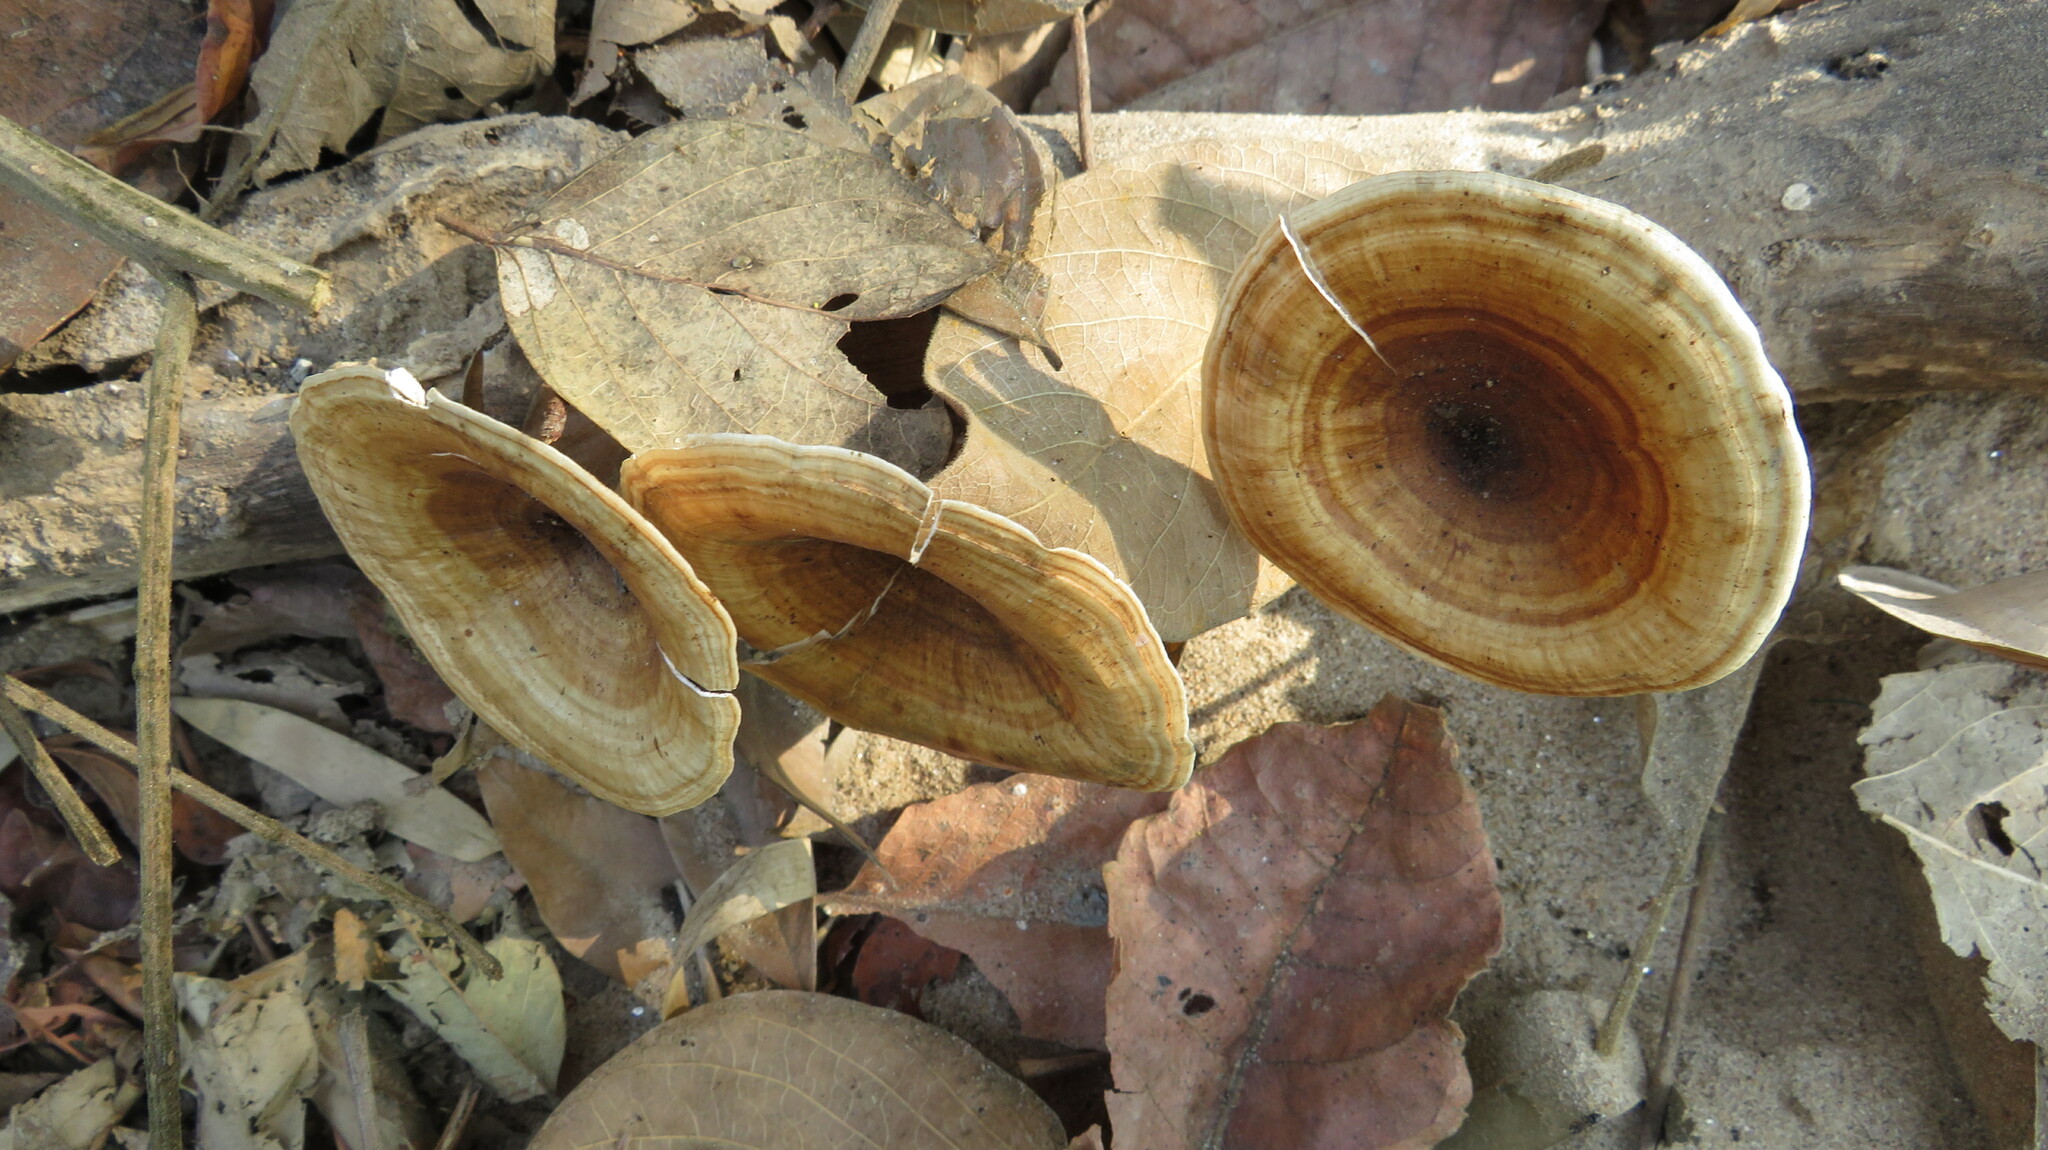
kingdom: Fungi
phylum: Basidiomycota
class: Agaricomycetes
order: Polyporales
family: Polyporaceae
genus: Microporus
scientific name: Microporus xanthopus
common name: Yellow-stemmed micropore
